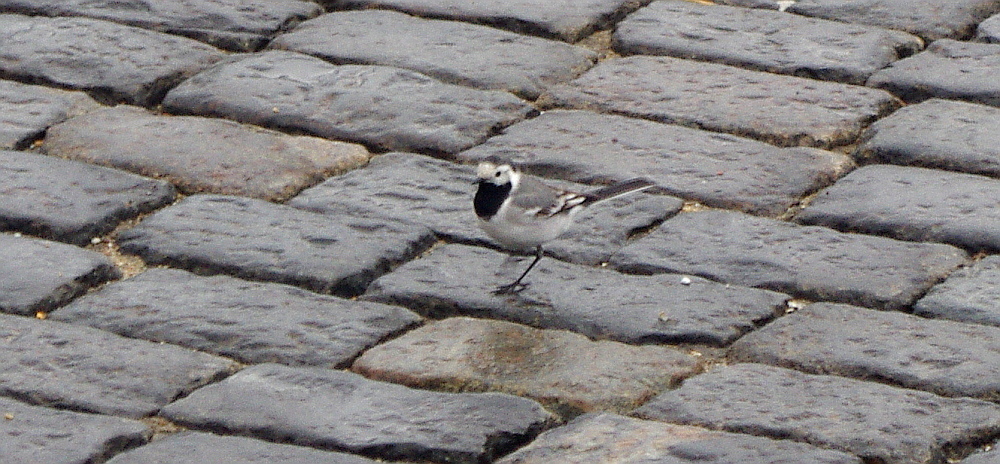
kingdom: Animalia
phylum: Chordata
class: Aves
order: Passeriformes
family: Motacillidae
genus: Motacilla
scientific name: Motacilla alba
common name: White wagtail
